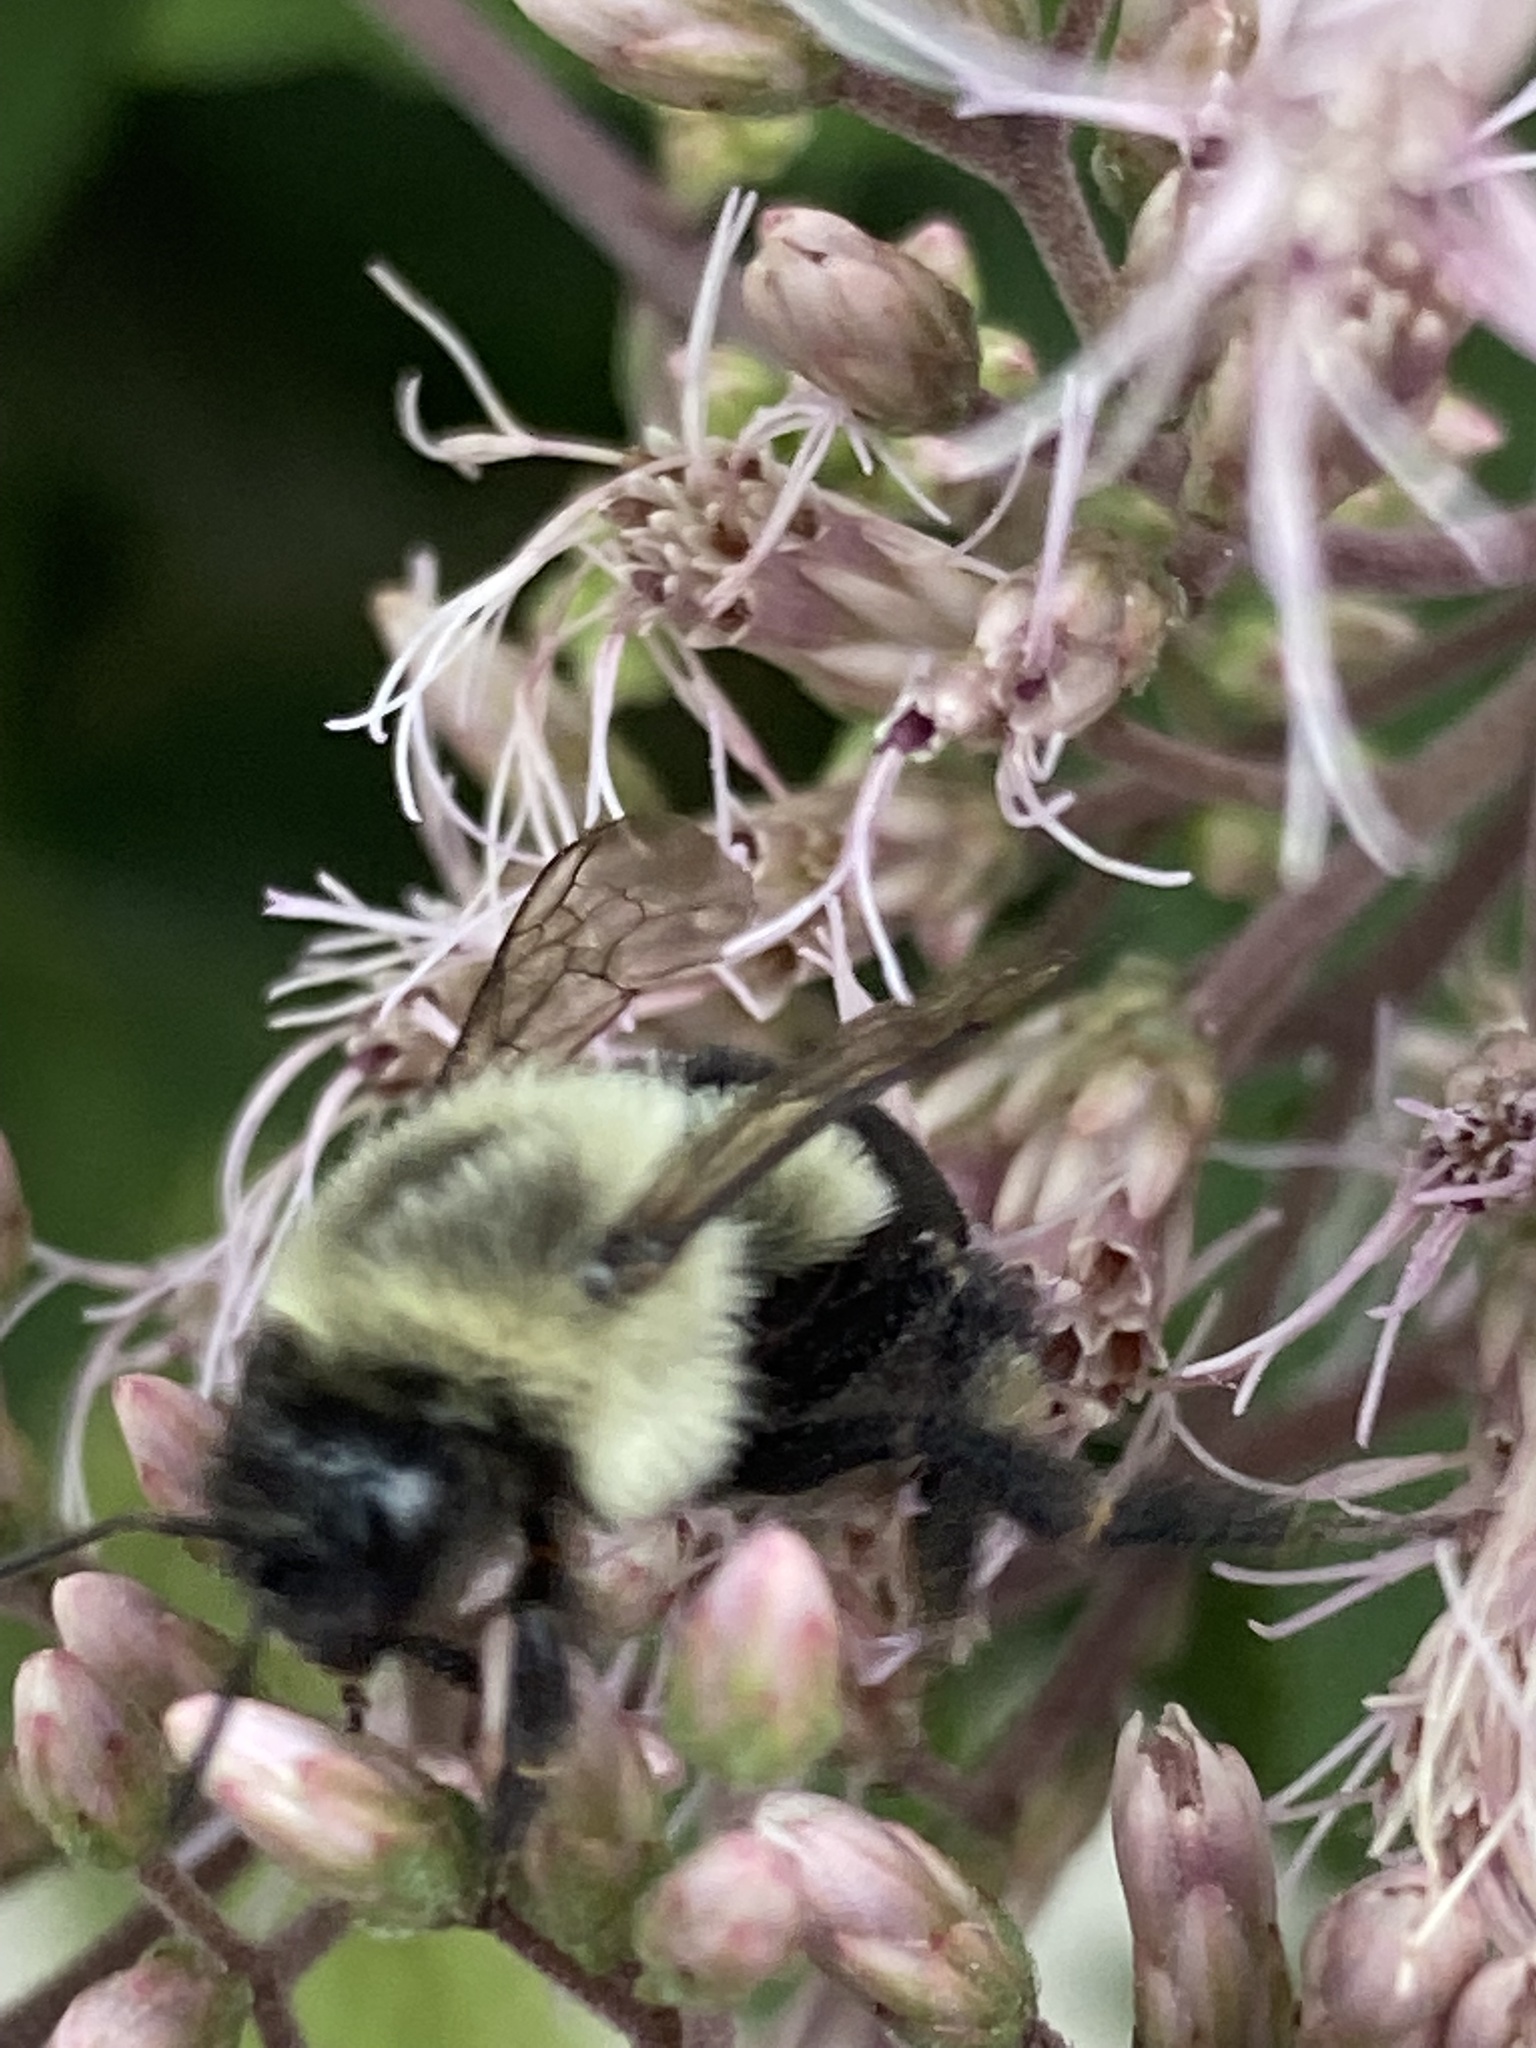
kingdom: Animalia
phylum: Arthropoda
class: Insecta
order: Hymenoptera
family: Apidae
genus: Bombus
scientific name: Bombus impatiens
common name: Common eastern bumble bee
